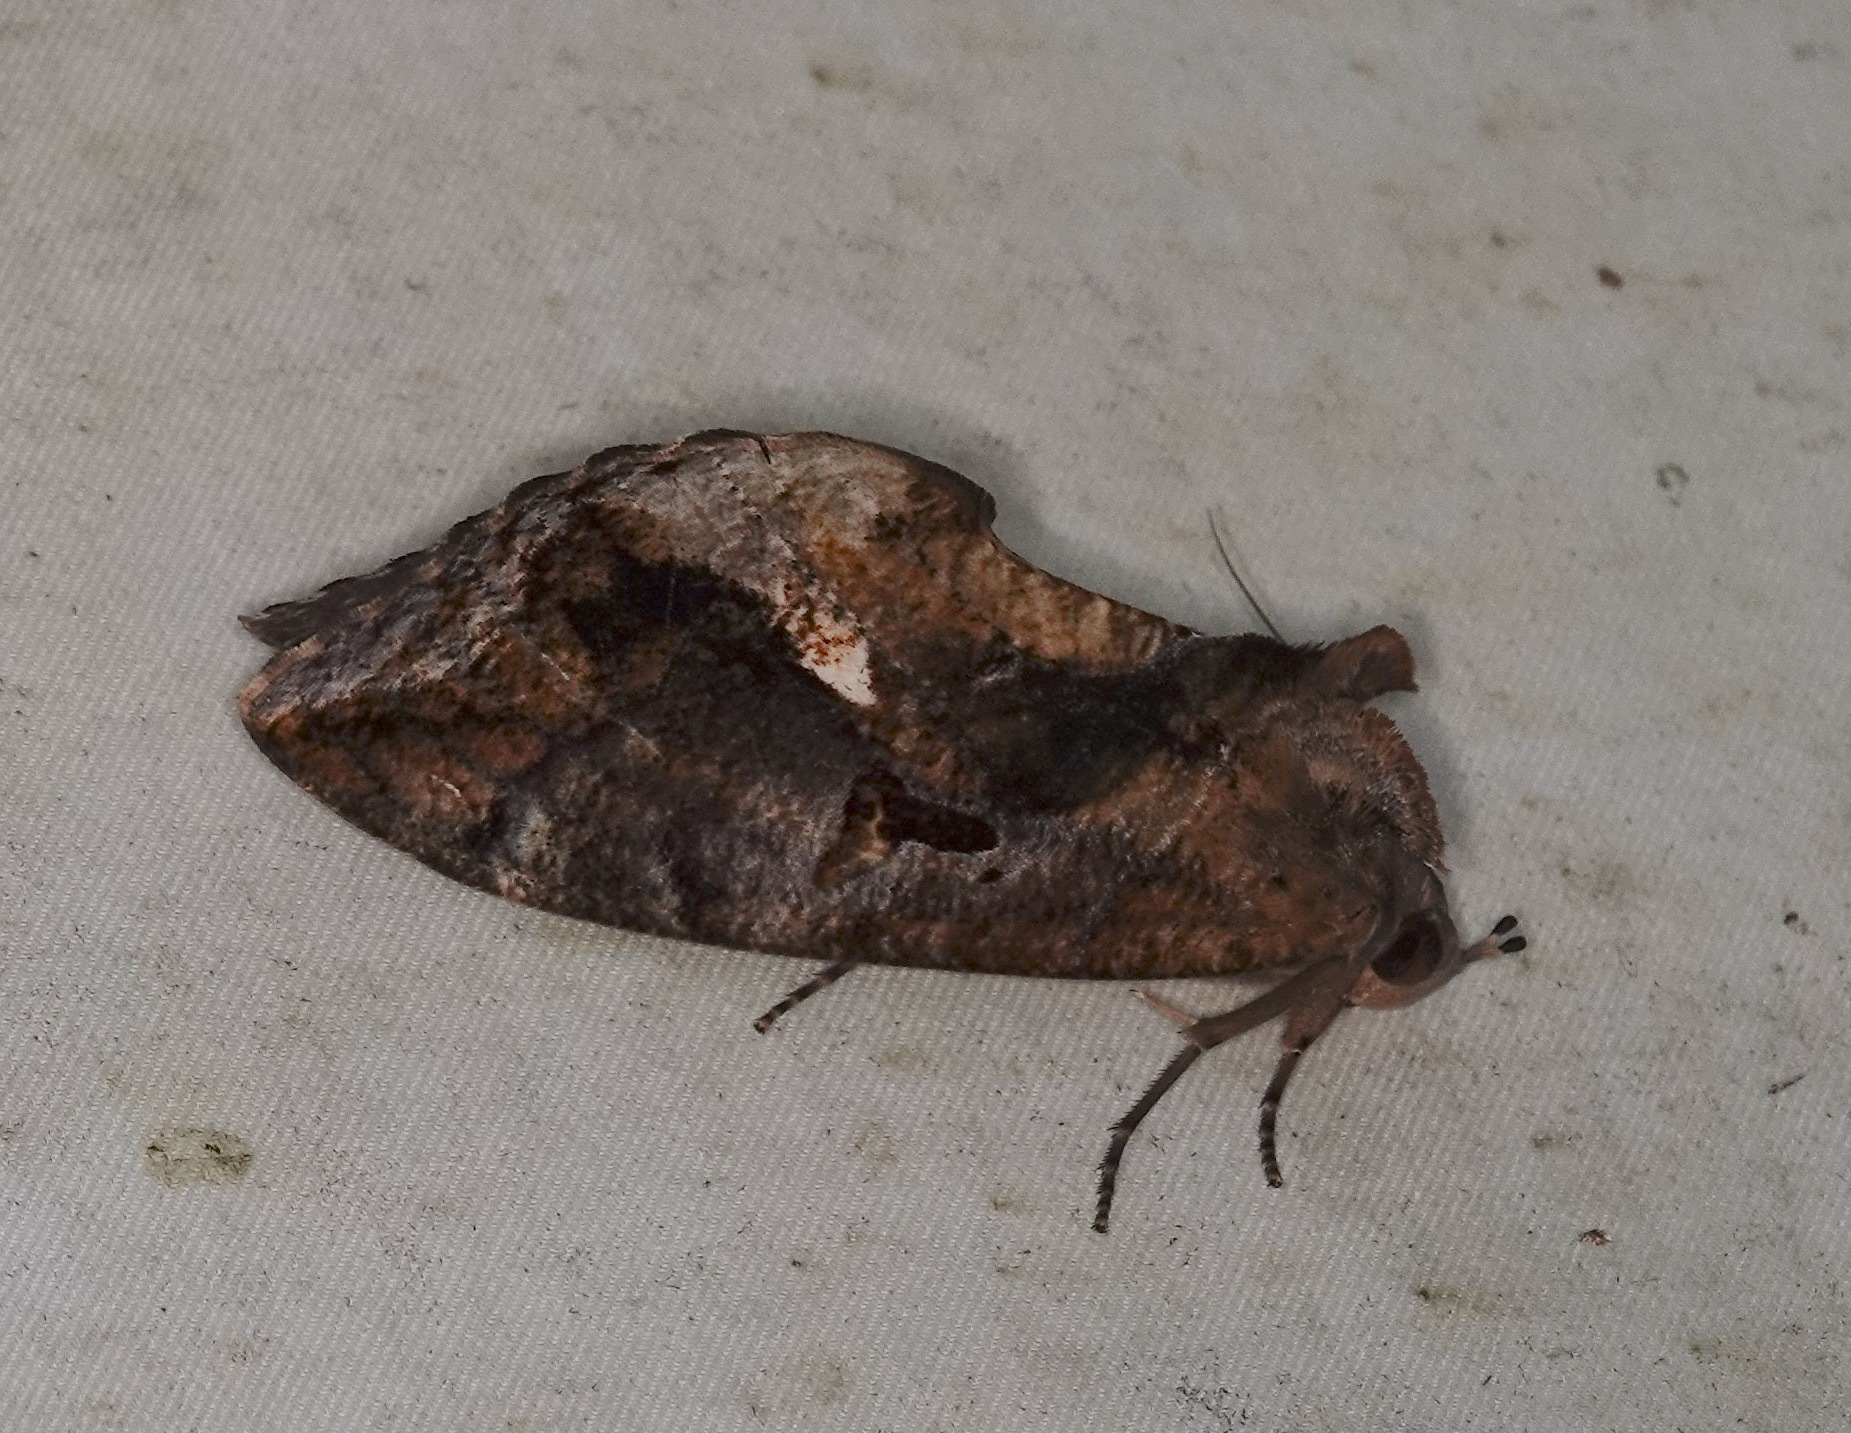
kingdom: Animalia
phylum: Arthropoda
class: Insecta
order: Lepidoptera
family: Erebidae
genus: Eudocima
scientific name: Eudocima phalonia
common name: Wasp
